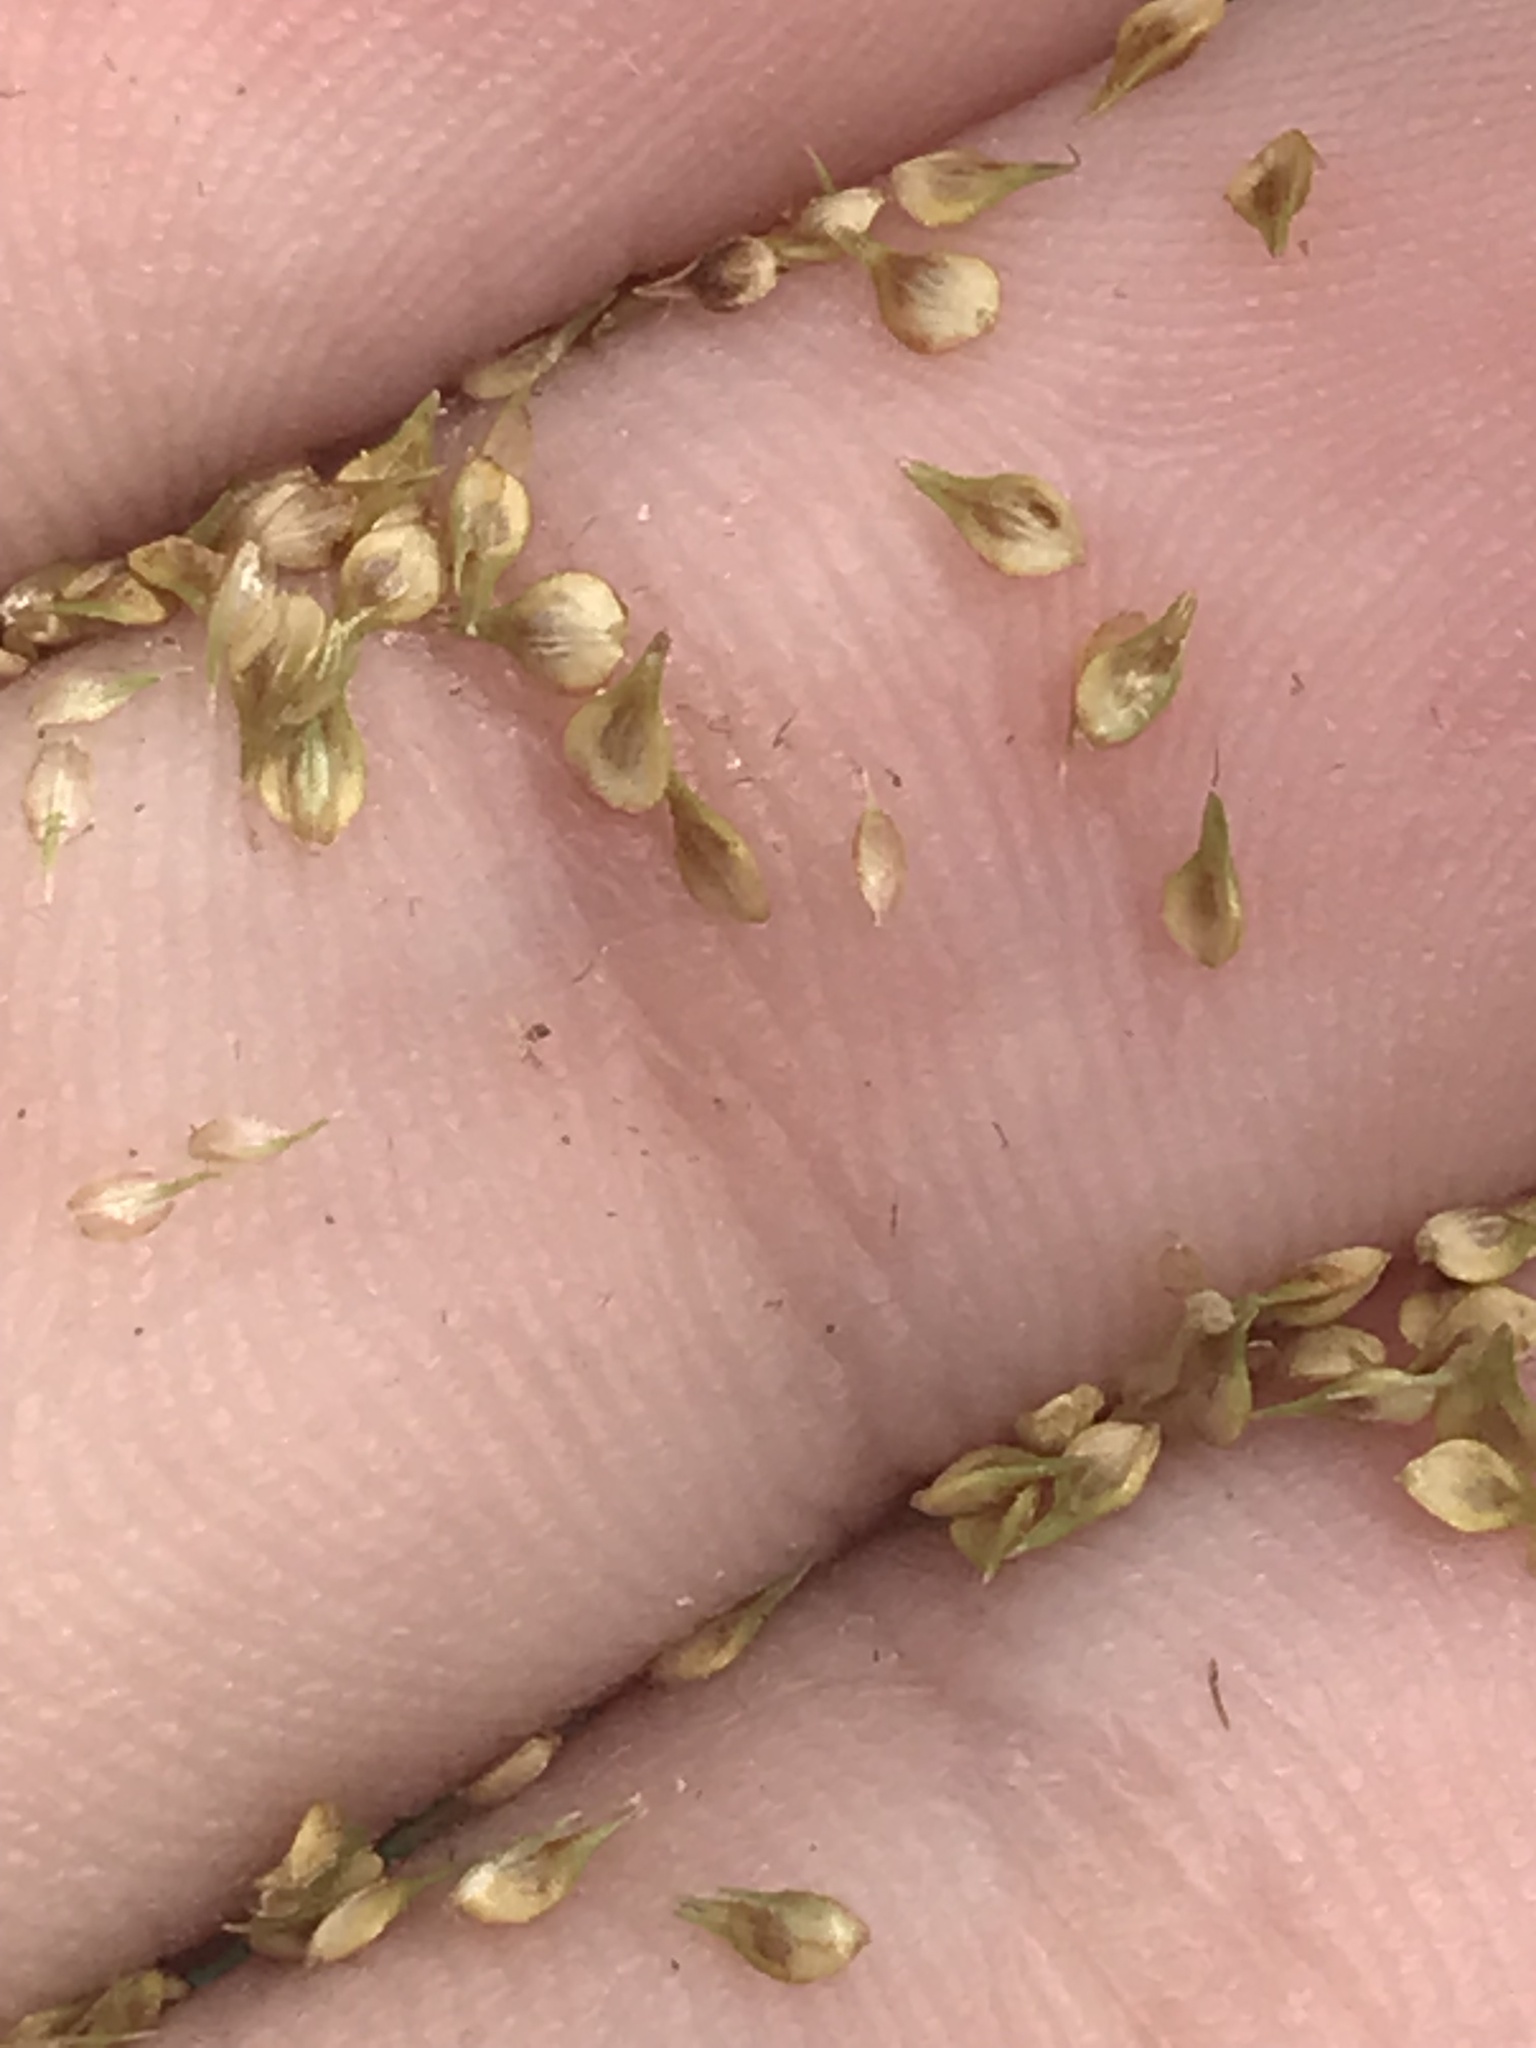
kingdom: Plantae
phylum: Tracheophyta
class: Liliopsida
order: Poales
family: Cyperaceae
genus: Carex
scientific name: Carex vulpinoidea
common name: American fox-sedge
